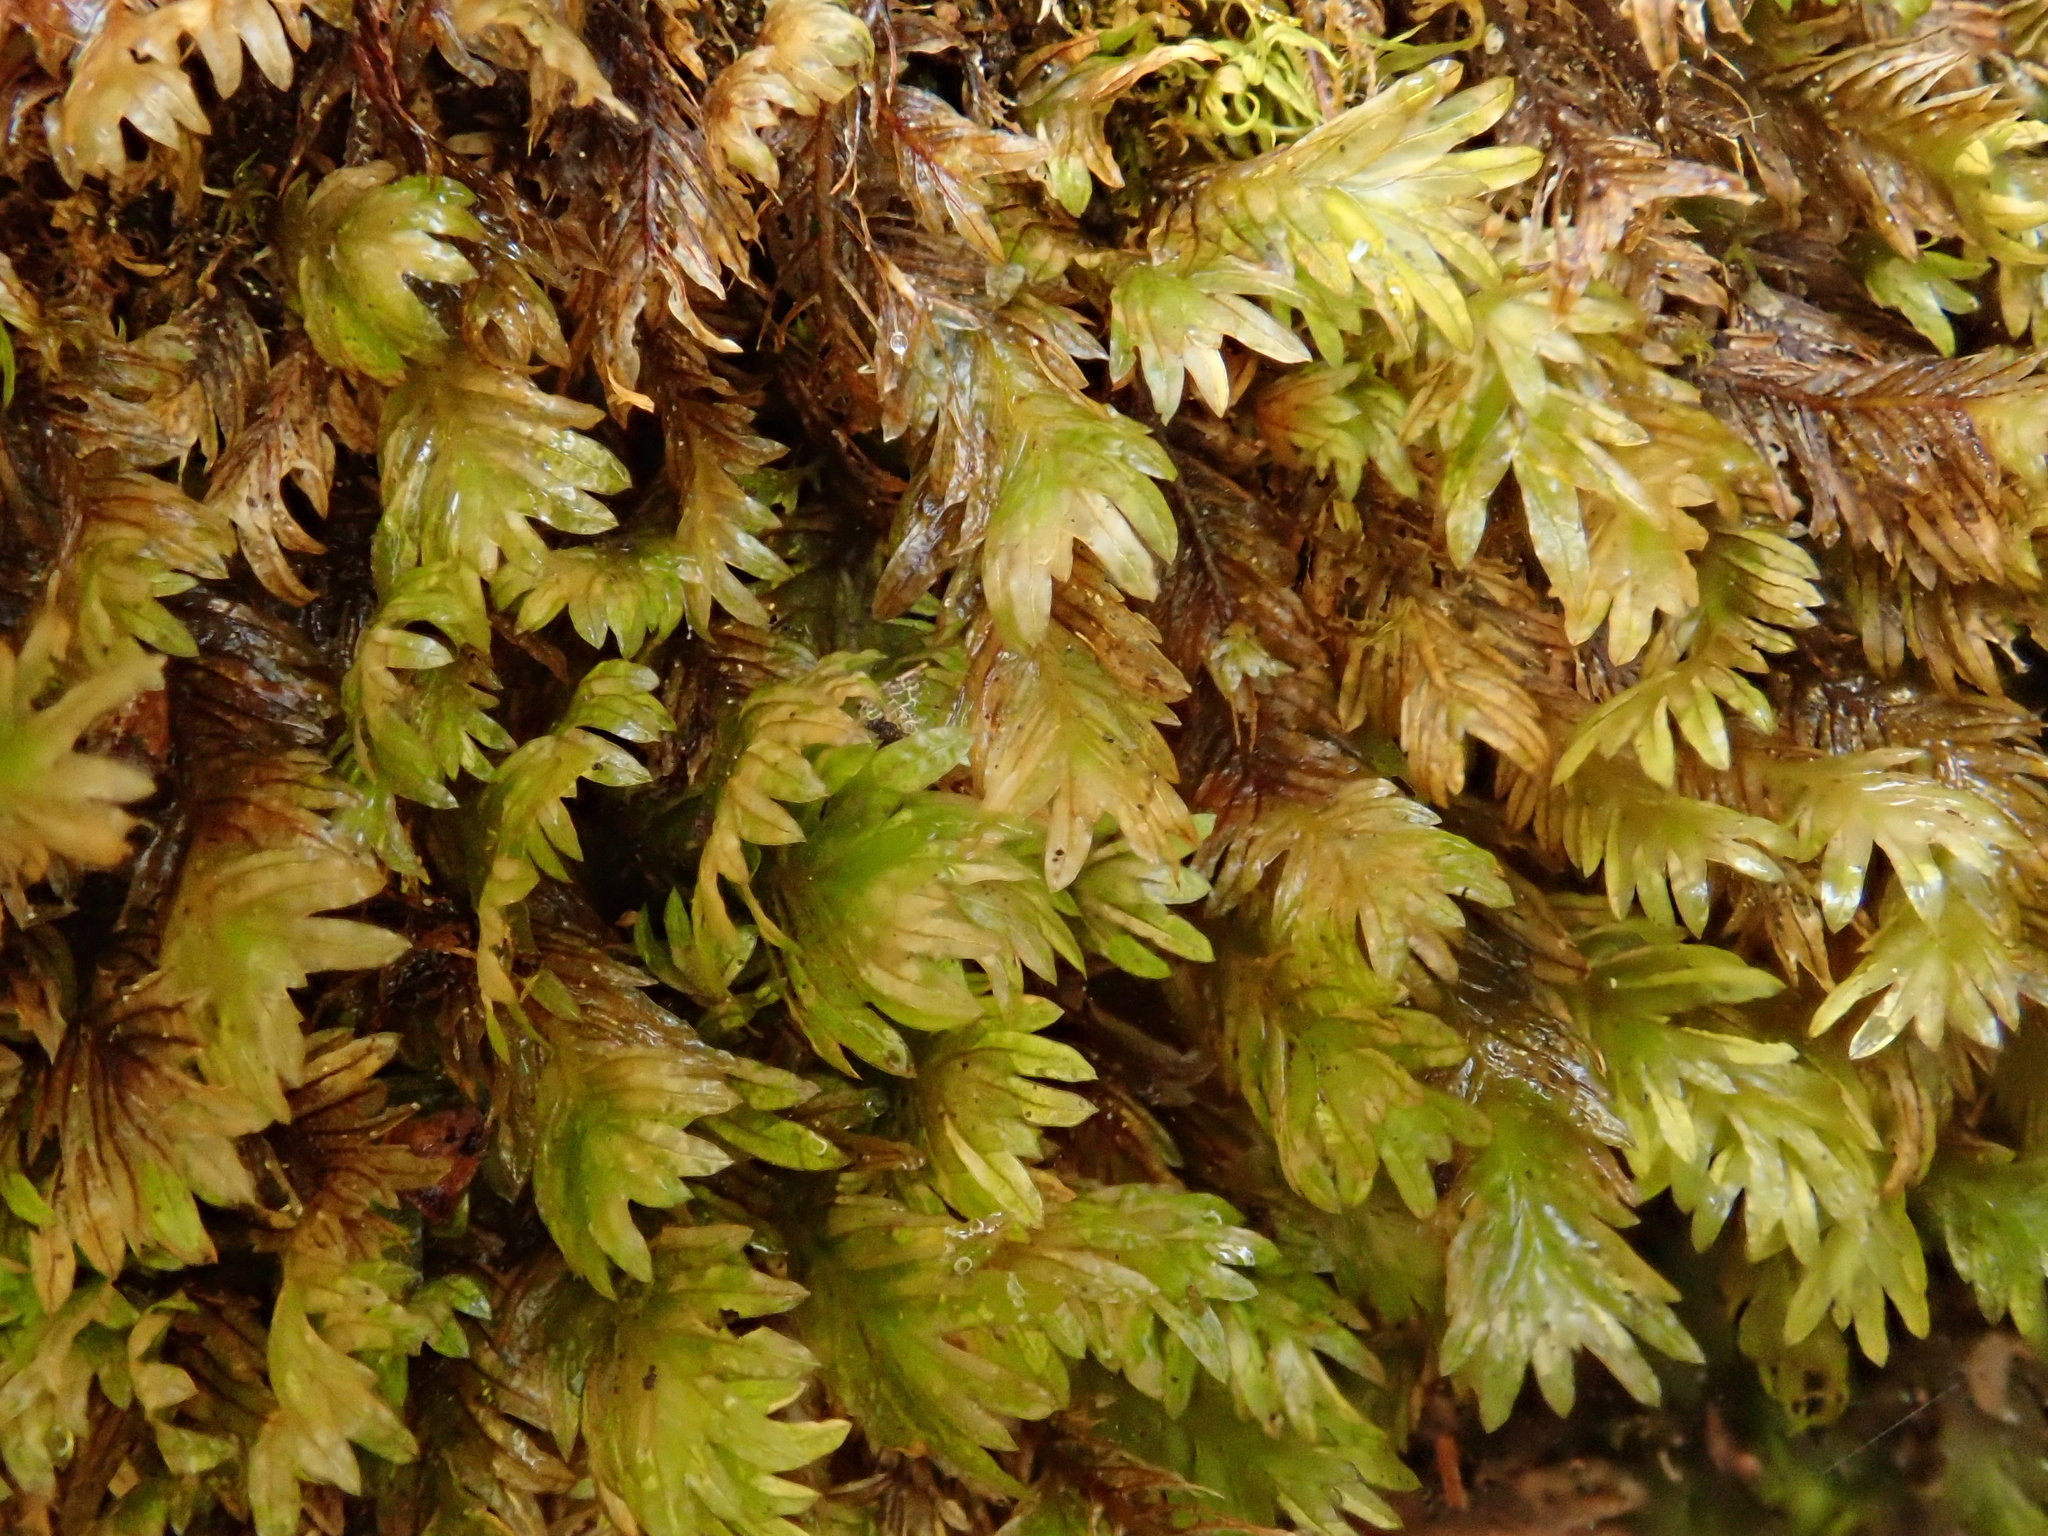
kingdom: Plantae
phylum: Bryophyta
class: Bryopsida
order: Dicranales
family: Fissidentaceae
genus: Fissidens
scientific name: Fissidens dubius
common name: Rock pocket moss
